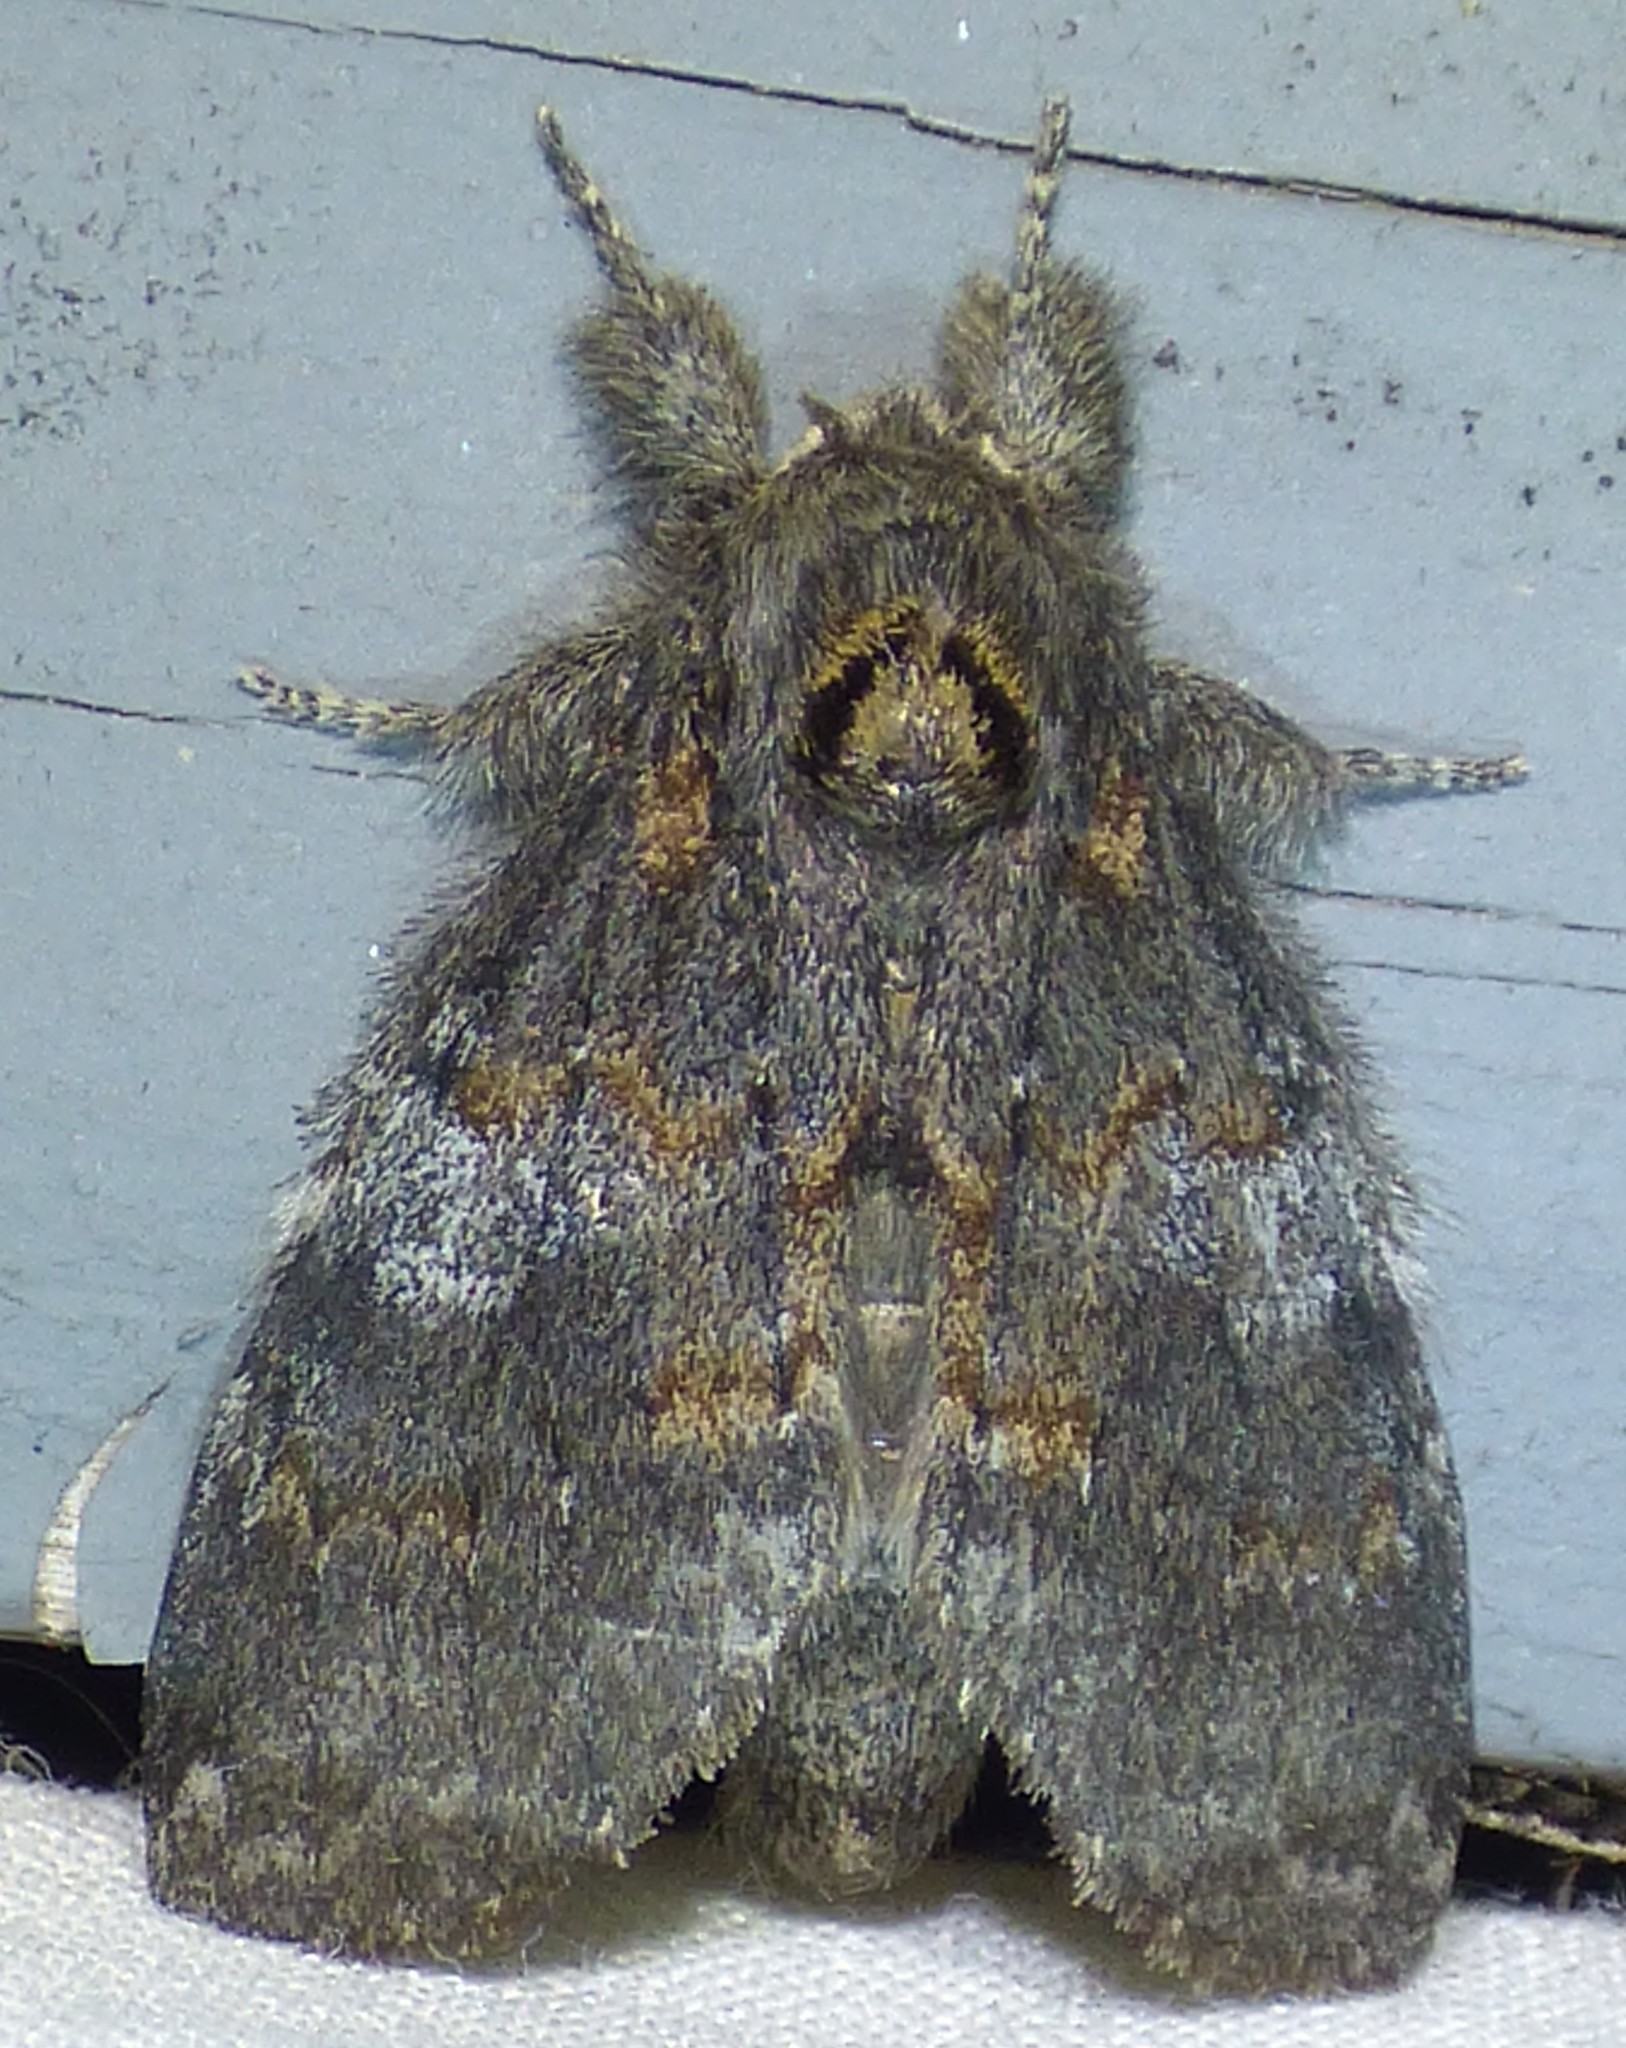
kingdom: Animalia
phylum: Arthropoda
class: Insecta
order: Lepidoptera
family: Notodontidae
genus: Peridea
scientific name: Peridea angulosa
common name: Angulose prominent
